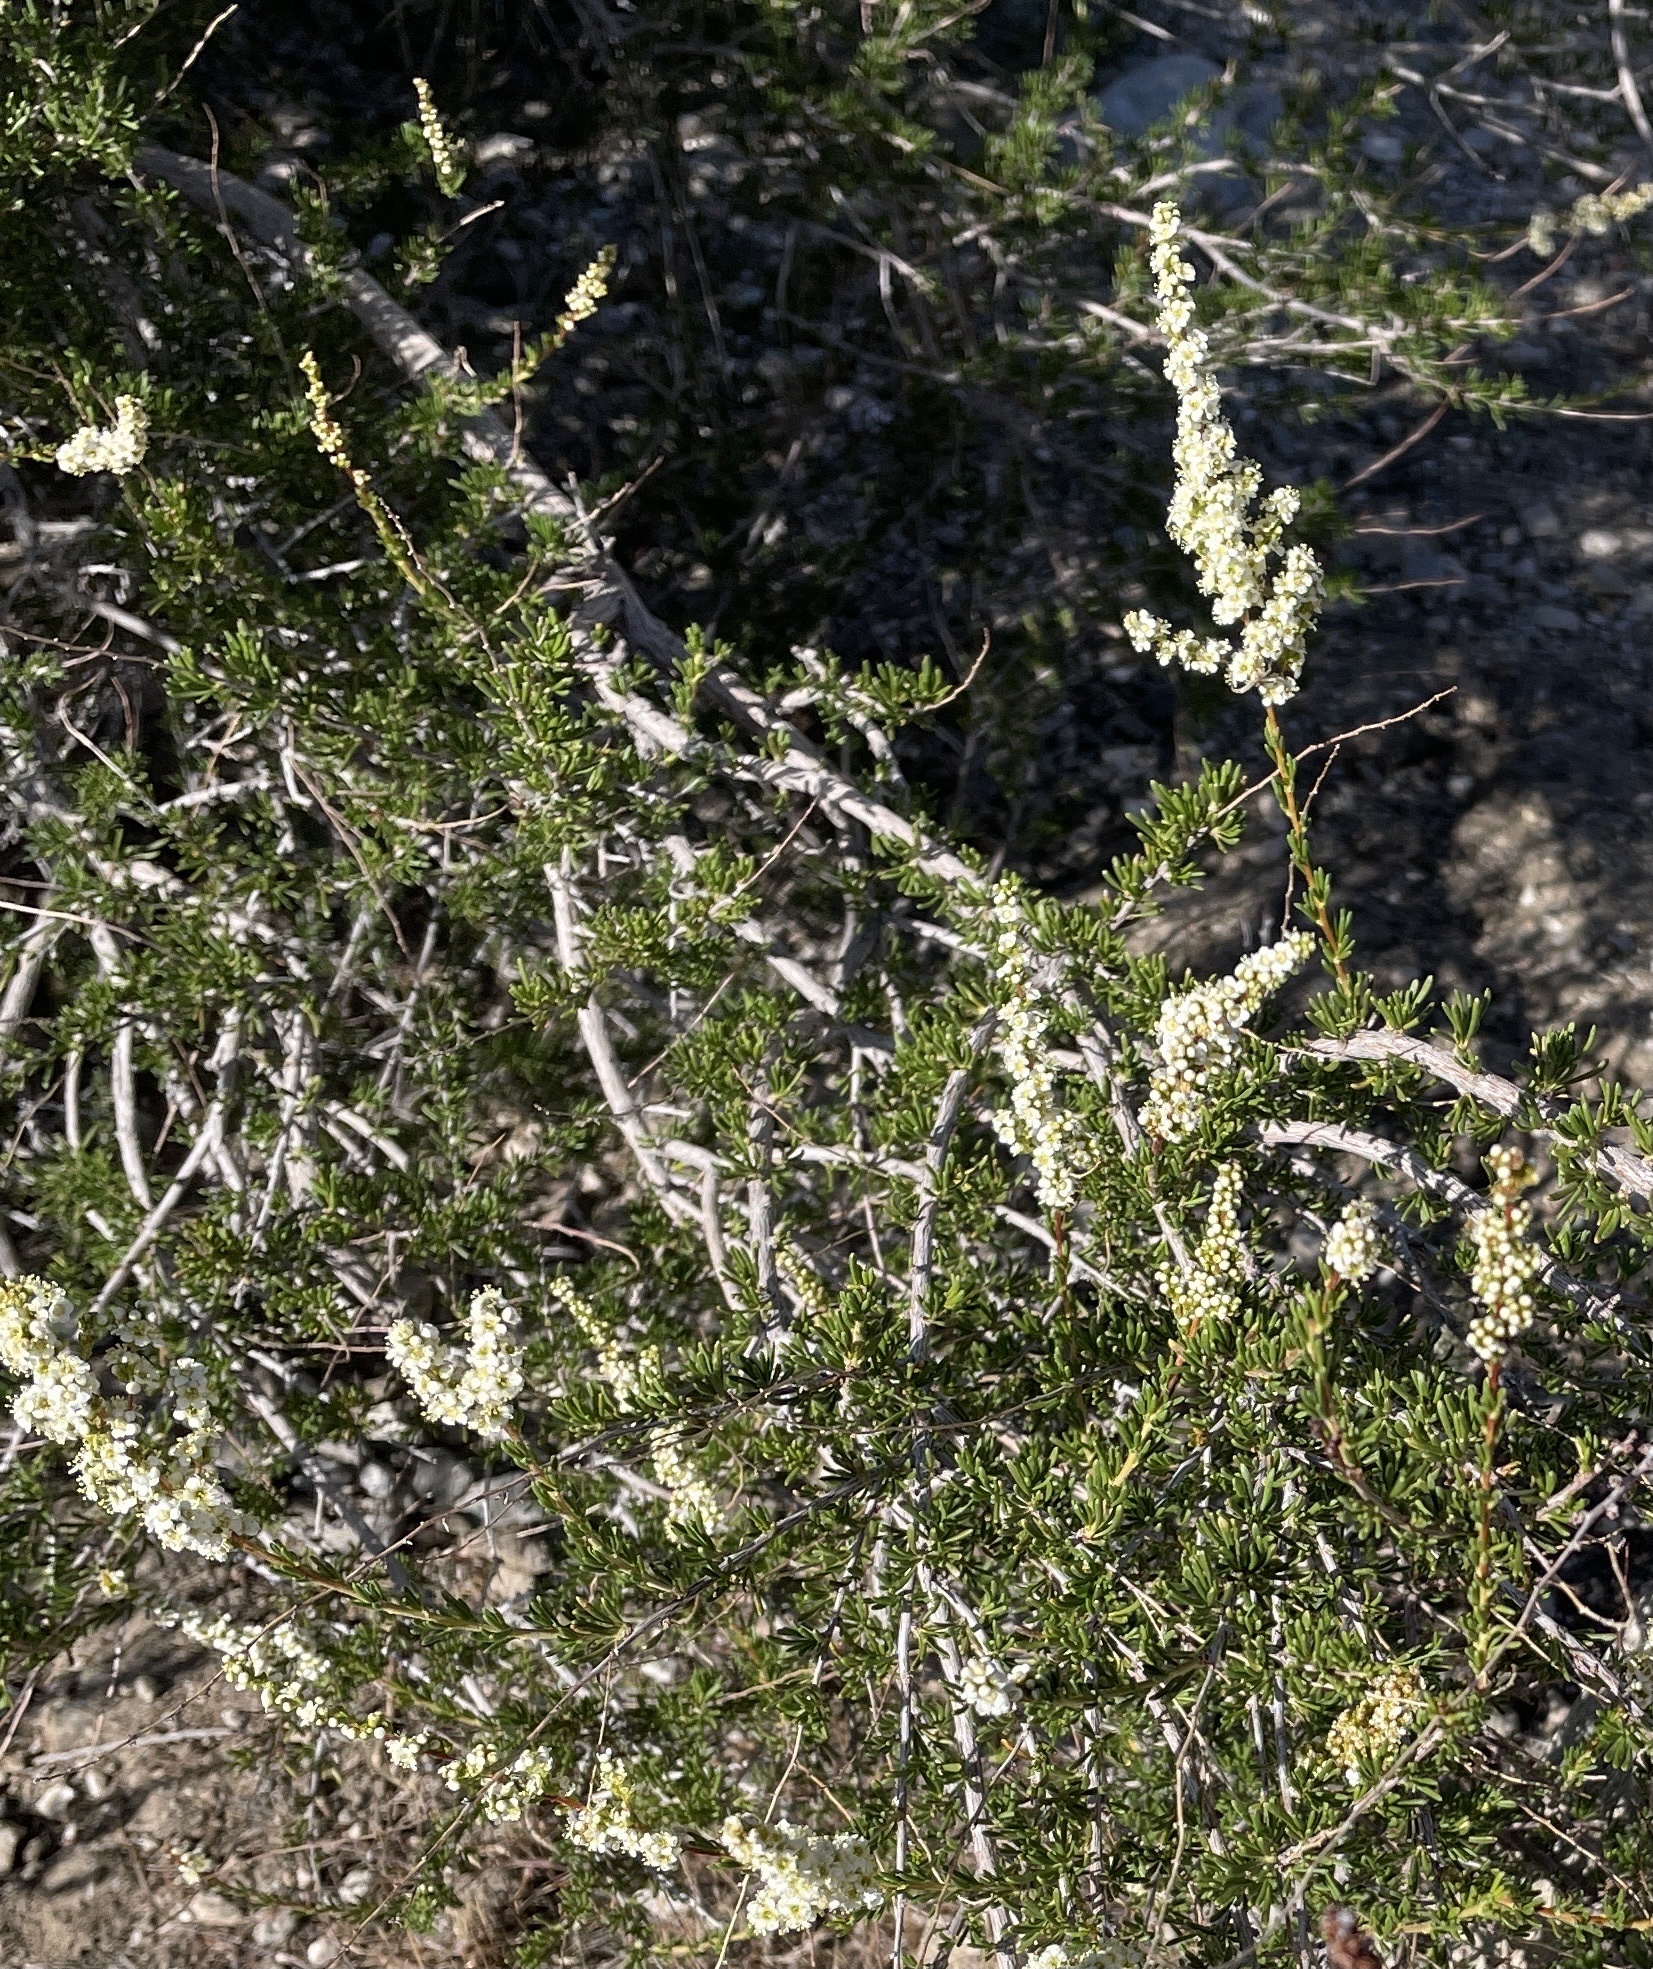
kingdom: Plantae
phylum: Tracheophyta
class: Magnoliopsida
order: Rosales
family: Rosaceae
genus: Adenostoma
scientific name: Adenostoma fasciculatum
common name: Chamise
